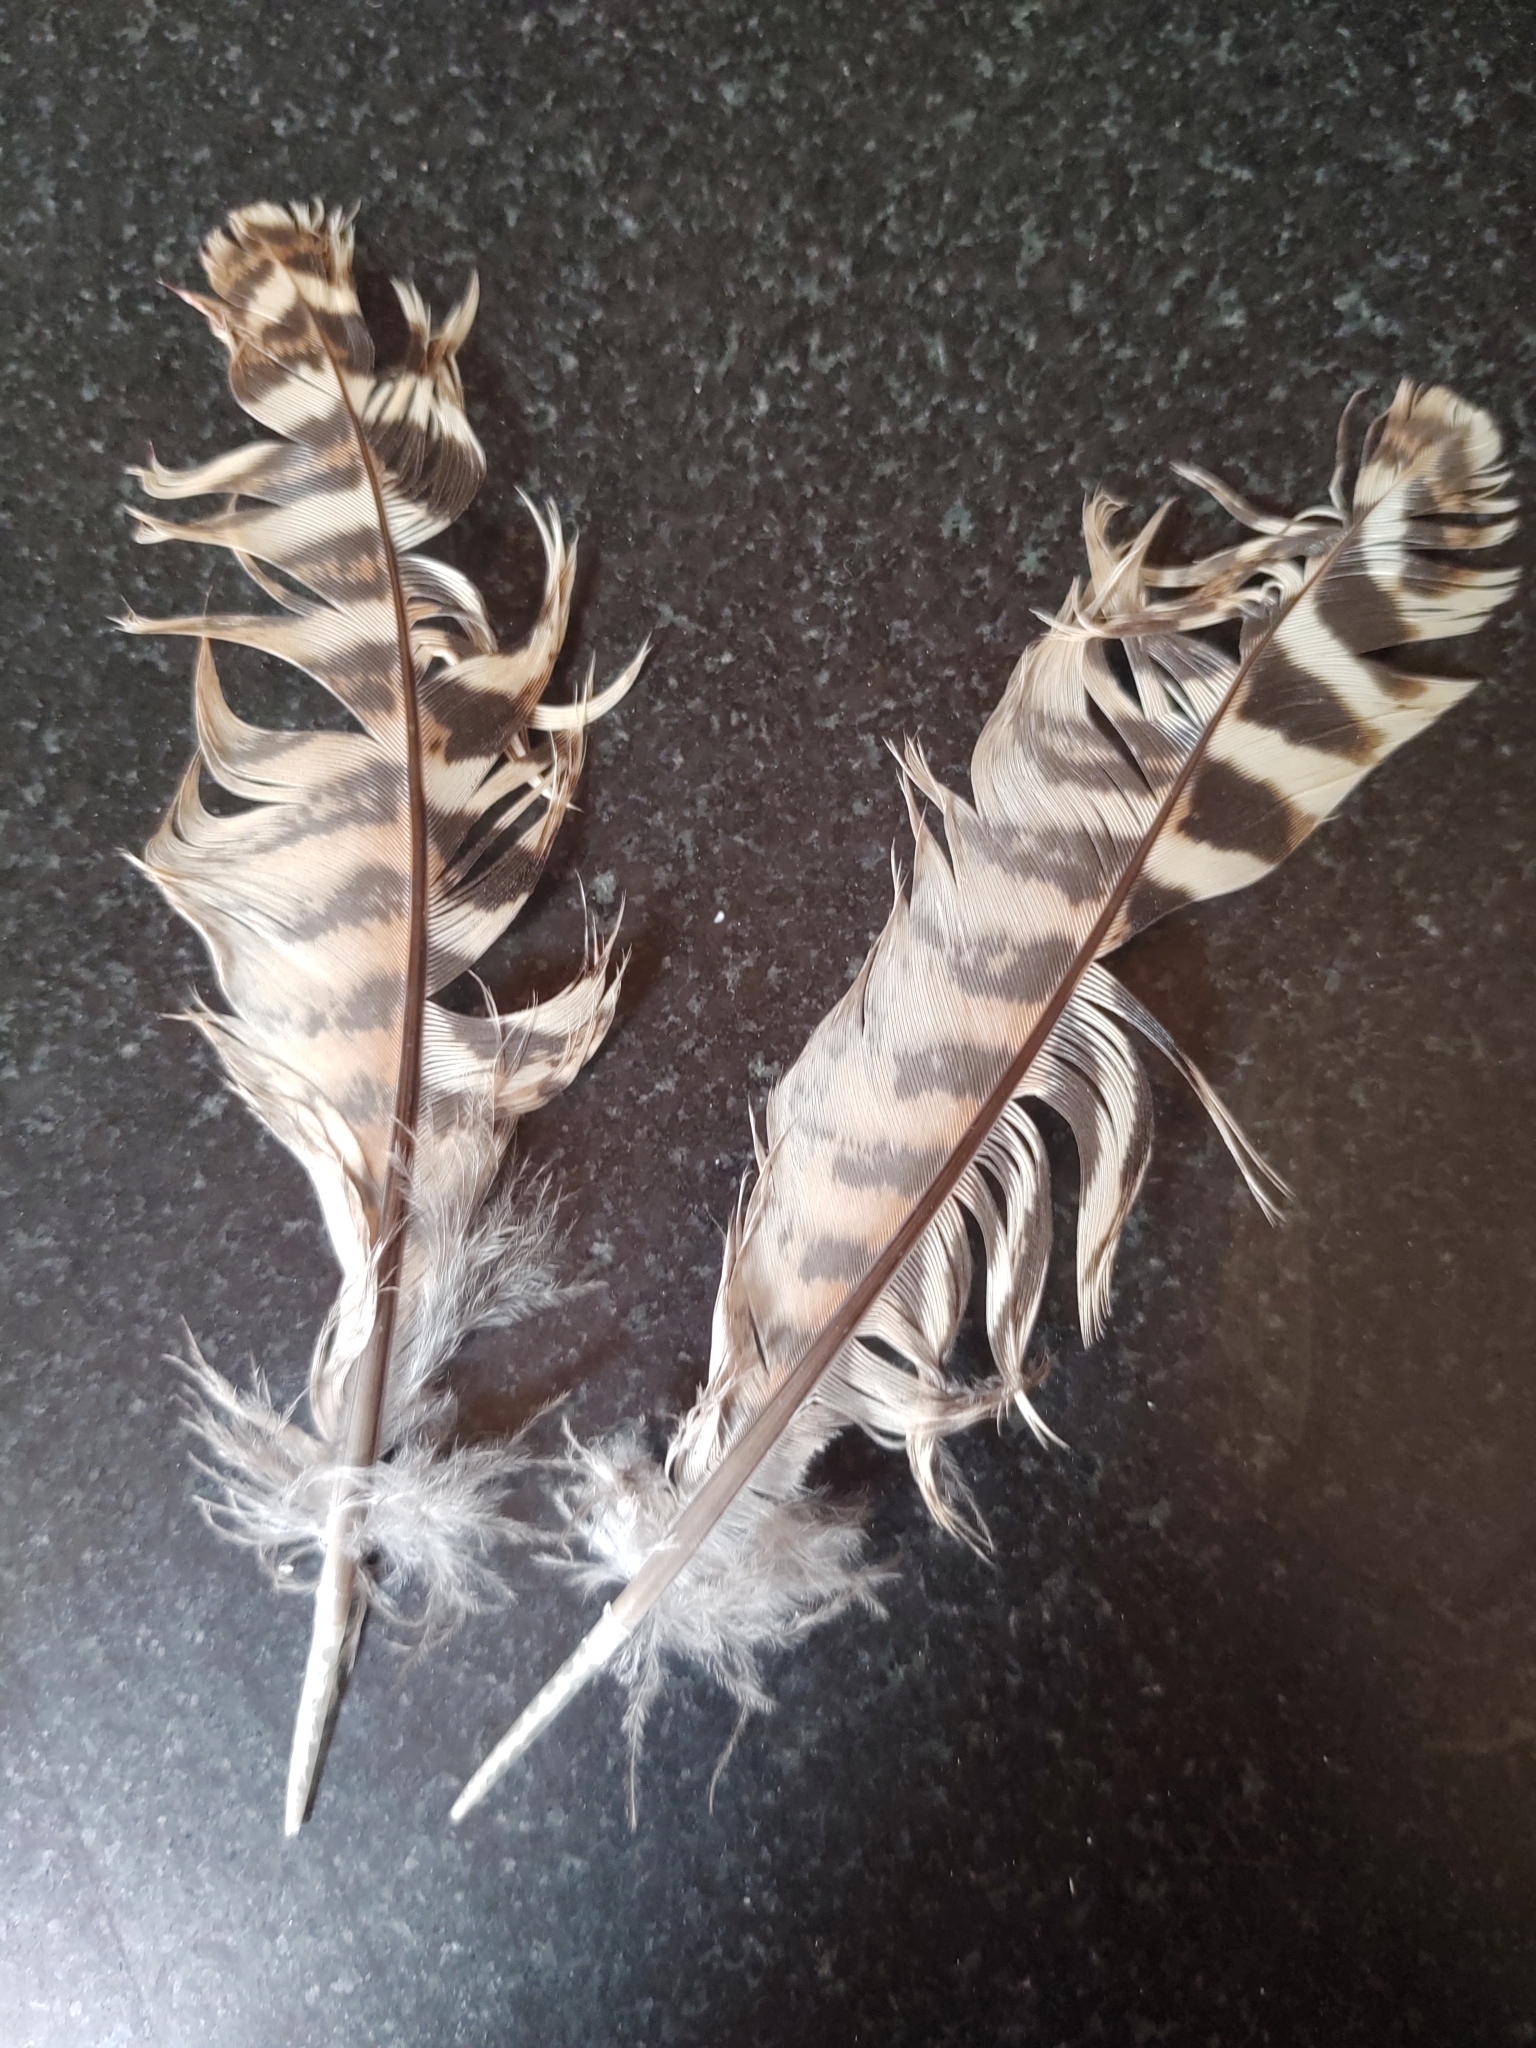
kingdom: Animalia
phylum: Chordata
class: Aves
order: Galliformes
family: Phasianidae
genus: Phasianus
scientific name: Phasianus colchicus
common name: Common pheasant
